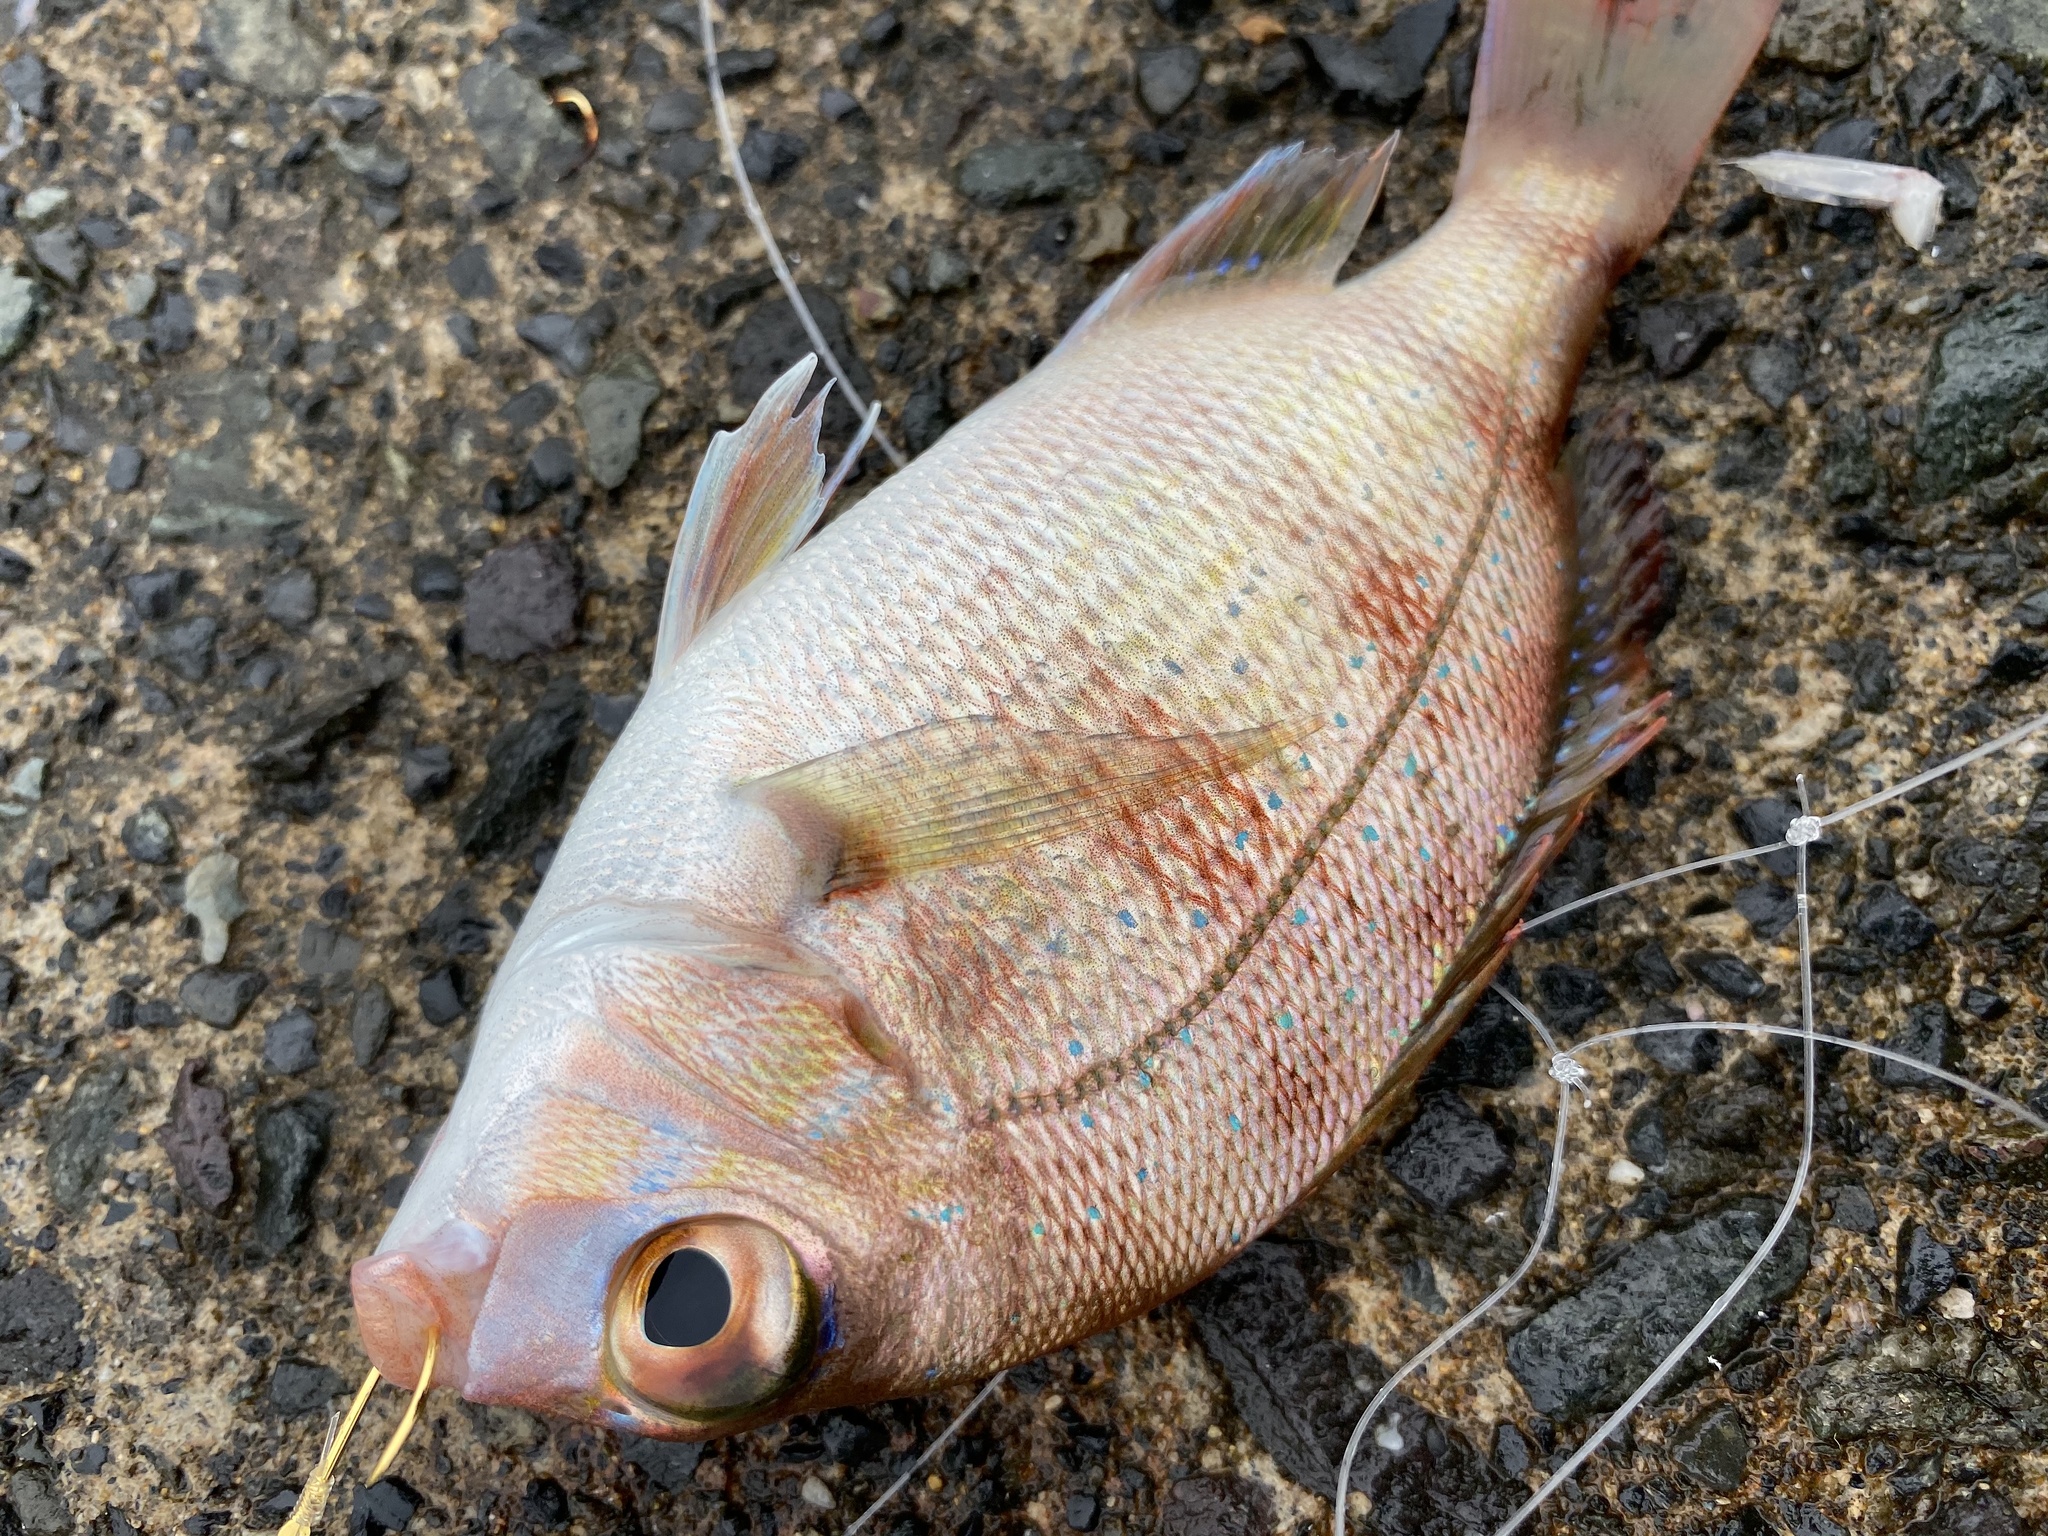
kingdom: Animalia
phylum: Chordata
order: Perciformes
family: Sparidae
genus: Pagrus
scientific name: Pagrus major
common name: Red sea bream
